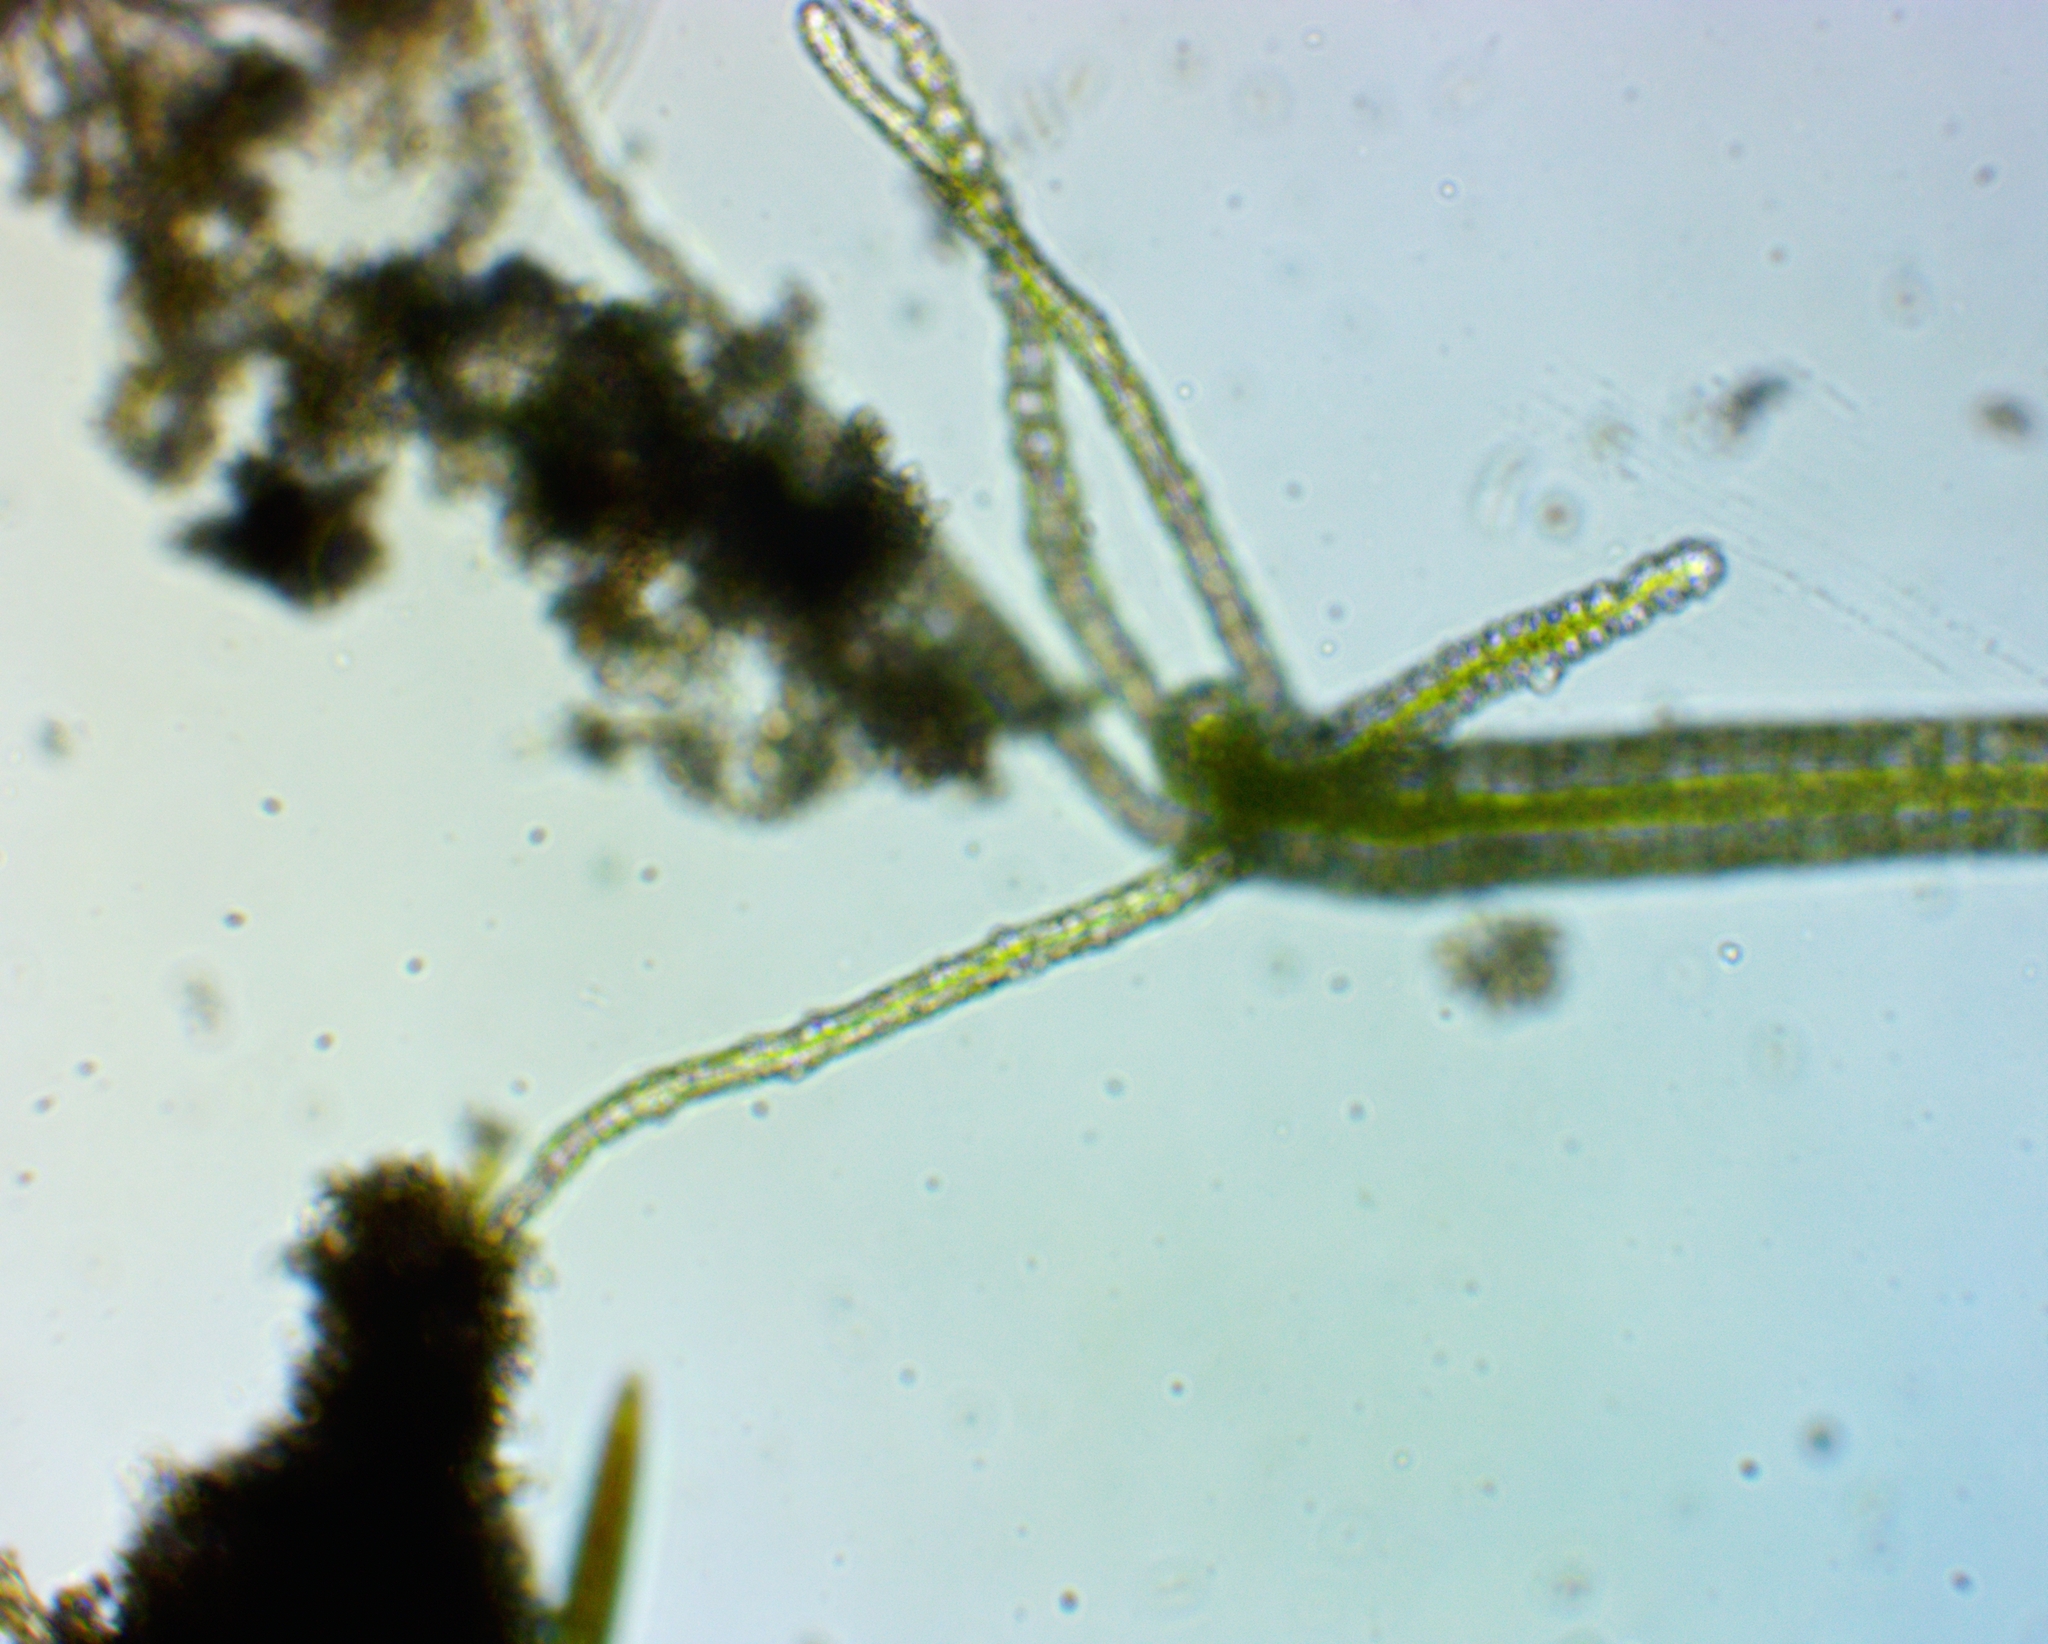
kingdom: Animalia
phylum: Cnidaria
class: Hydrozoa
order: Anthoathecata
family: Hydridae
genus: Hydra
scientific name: Hydra viridissima
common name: Green hydra
